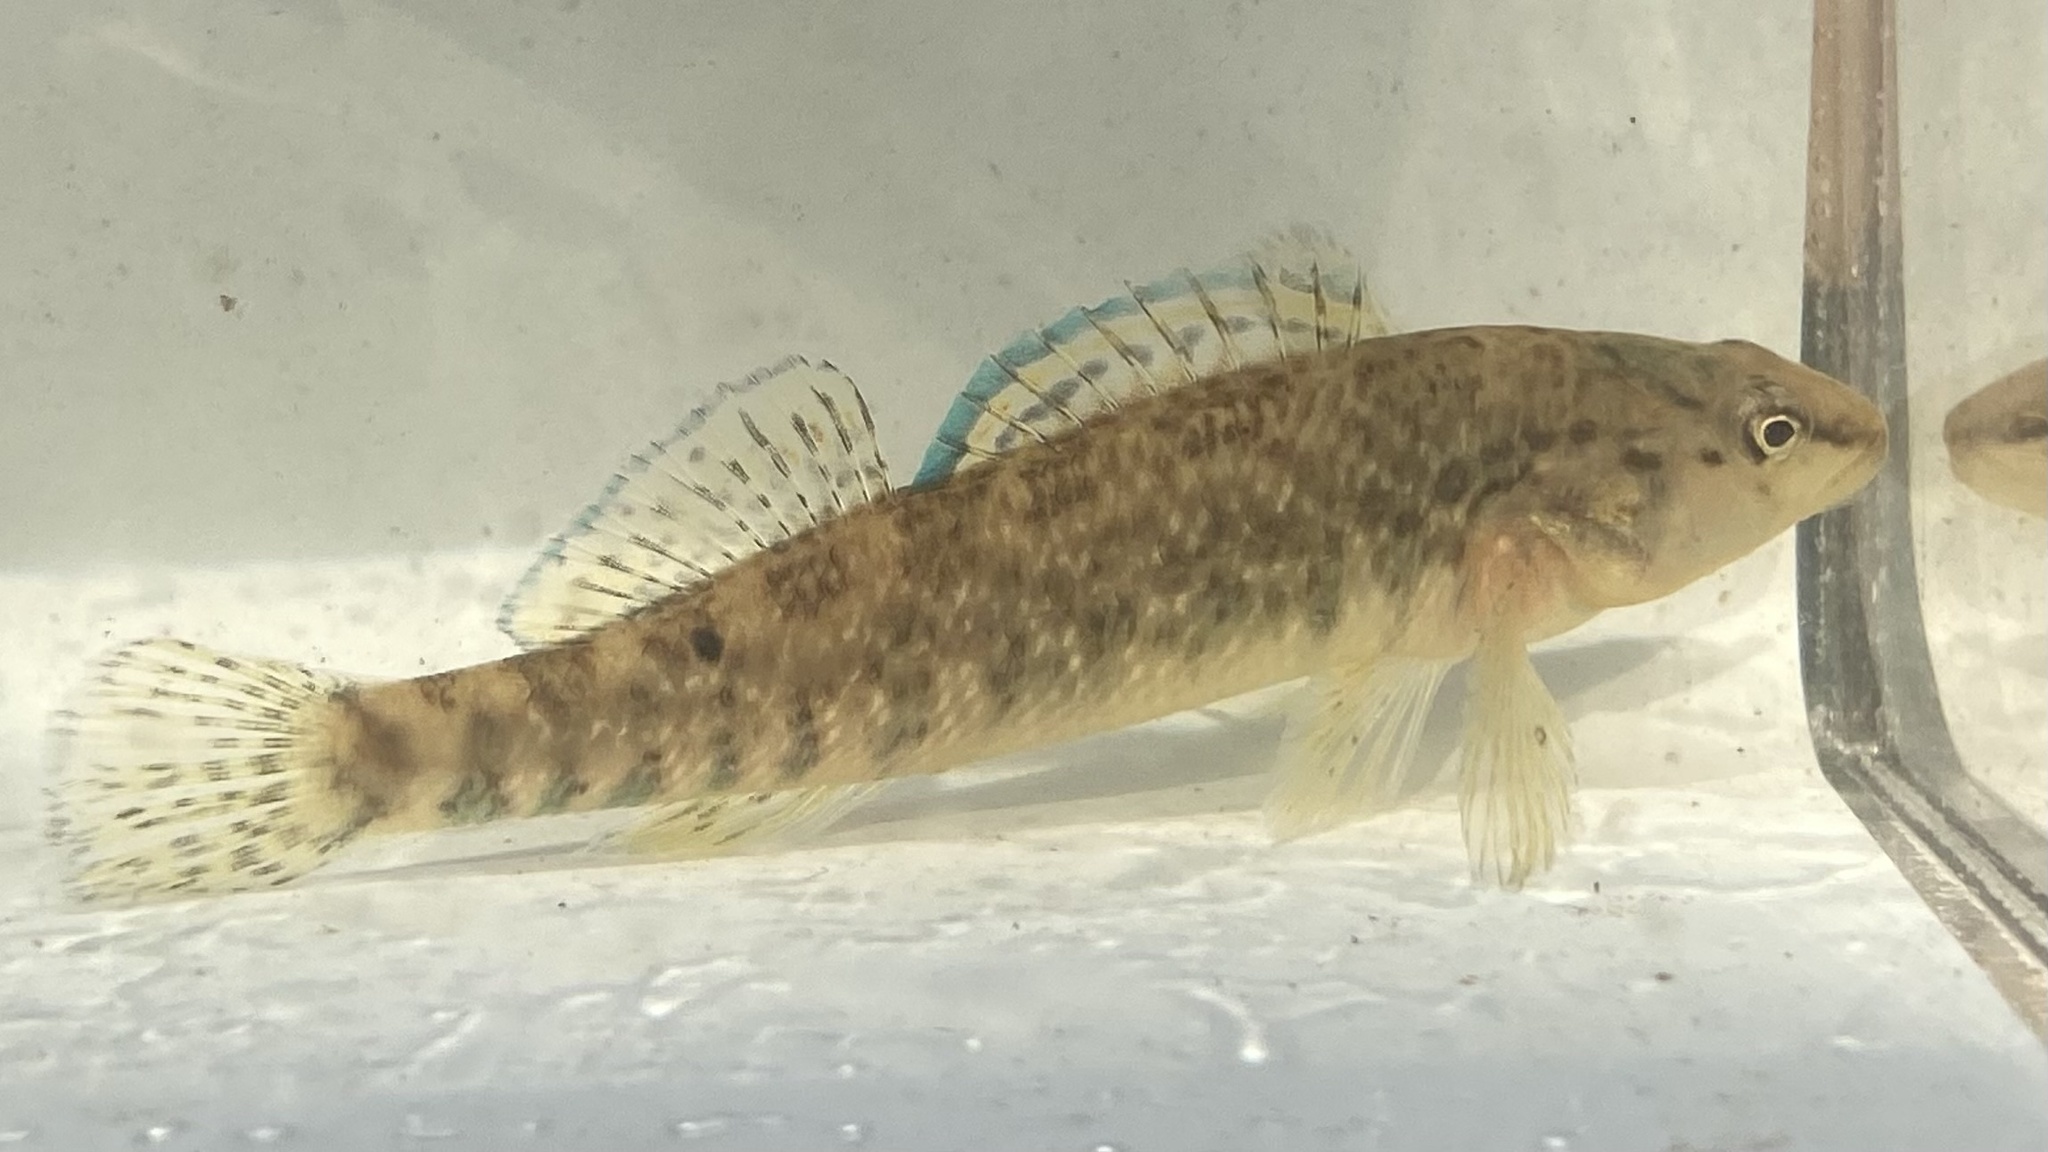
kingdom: Animalia
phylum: Chordata
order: Perciformes
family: Percidae
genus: Etheostoma
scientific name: Etheostoma caeruleum
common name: Rainbow darter
